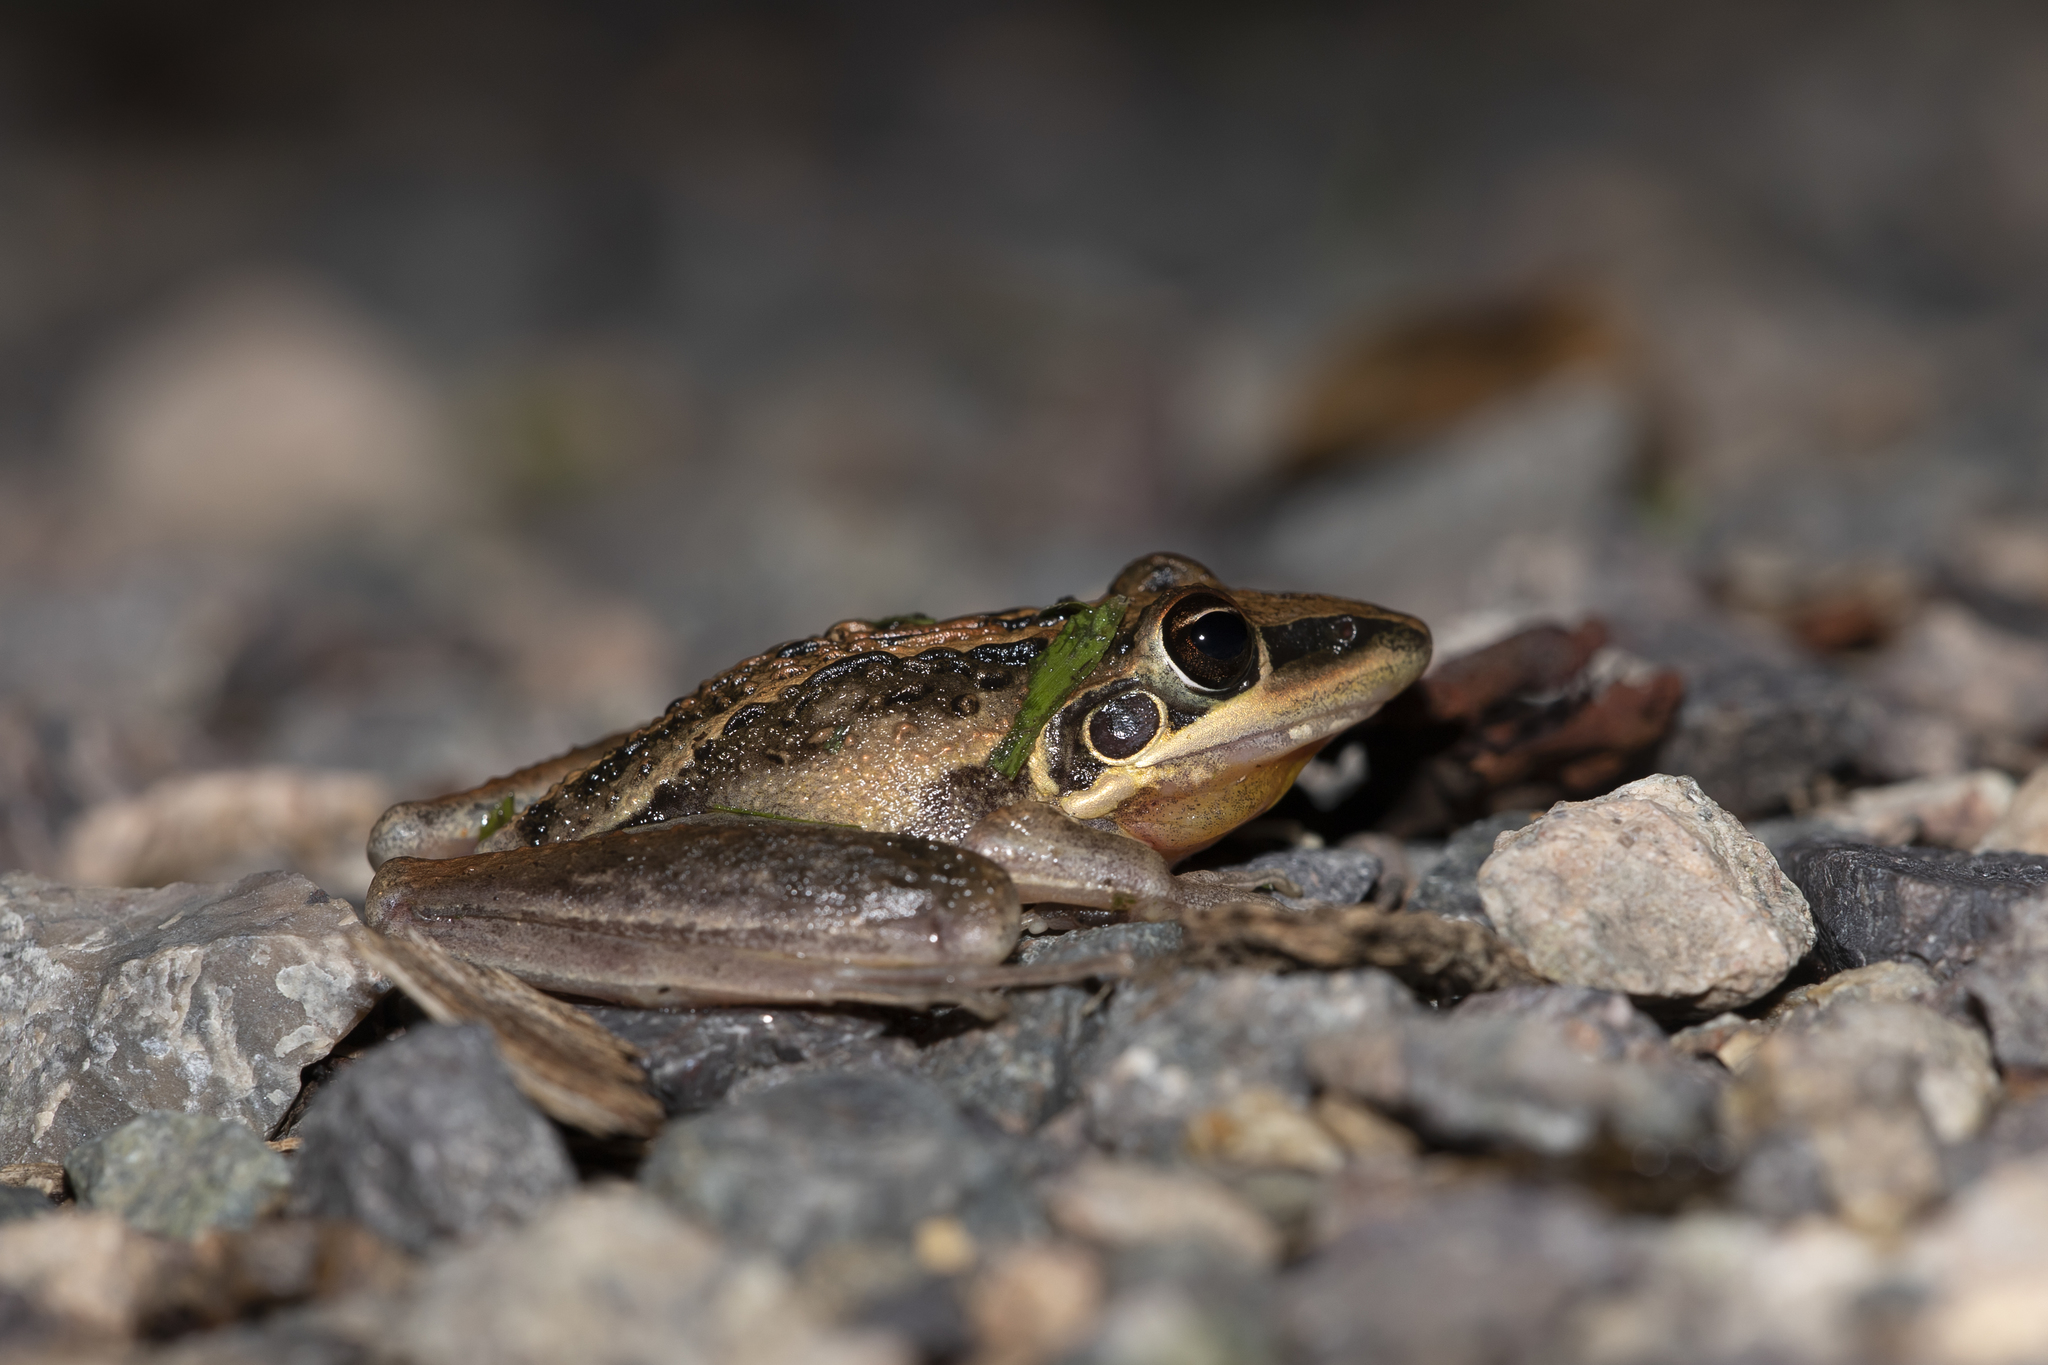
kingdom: Animalia
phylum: Chordata
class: Amphibia
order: Anura
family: Pelodryadidae
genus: Litoria
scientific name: Litoria nasuta
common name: Rocket frog
